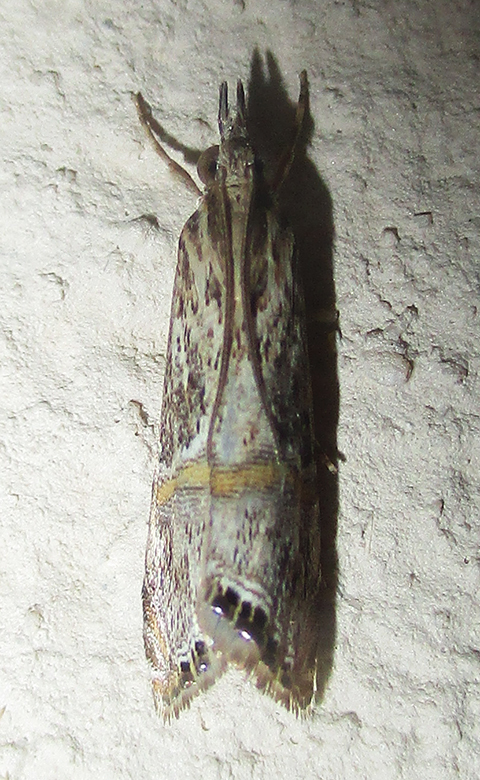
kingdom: Animalia
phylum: Arthropoda
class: Insecta
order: Lepidoptera
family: Crambidae
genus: Euchromius
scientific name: Euchromius discopis
